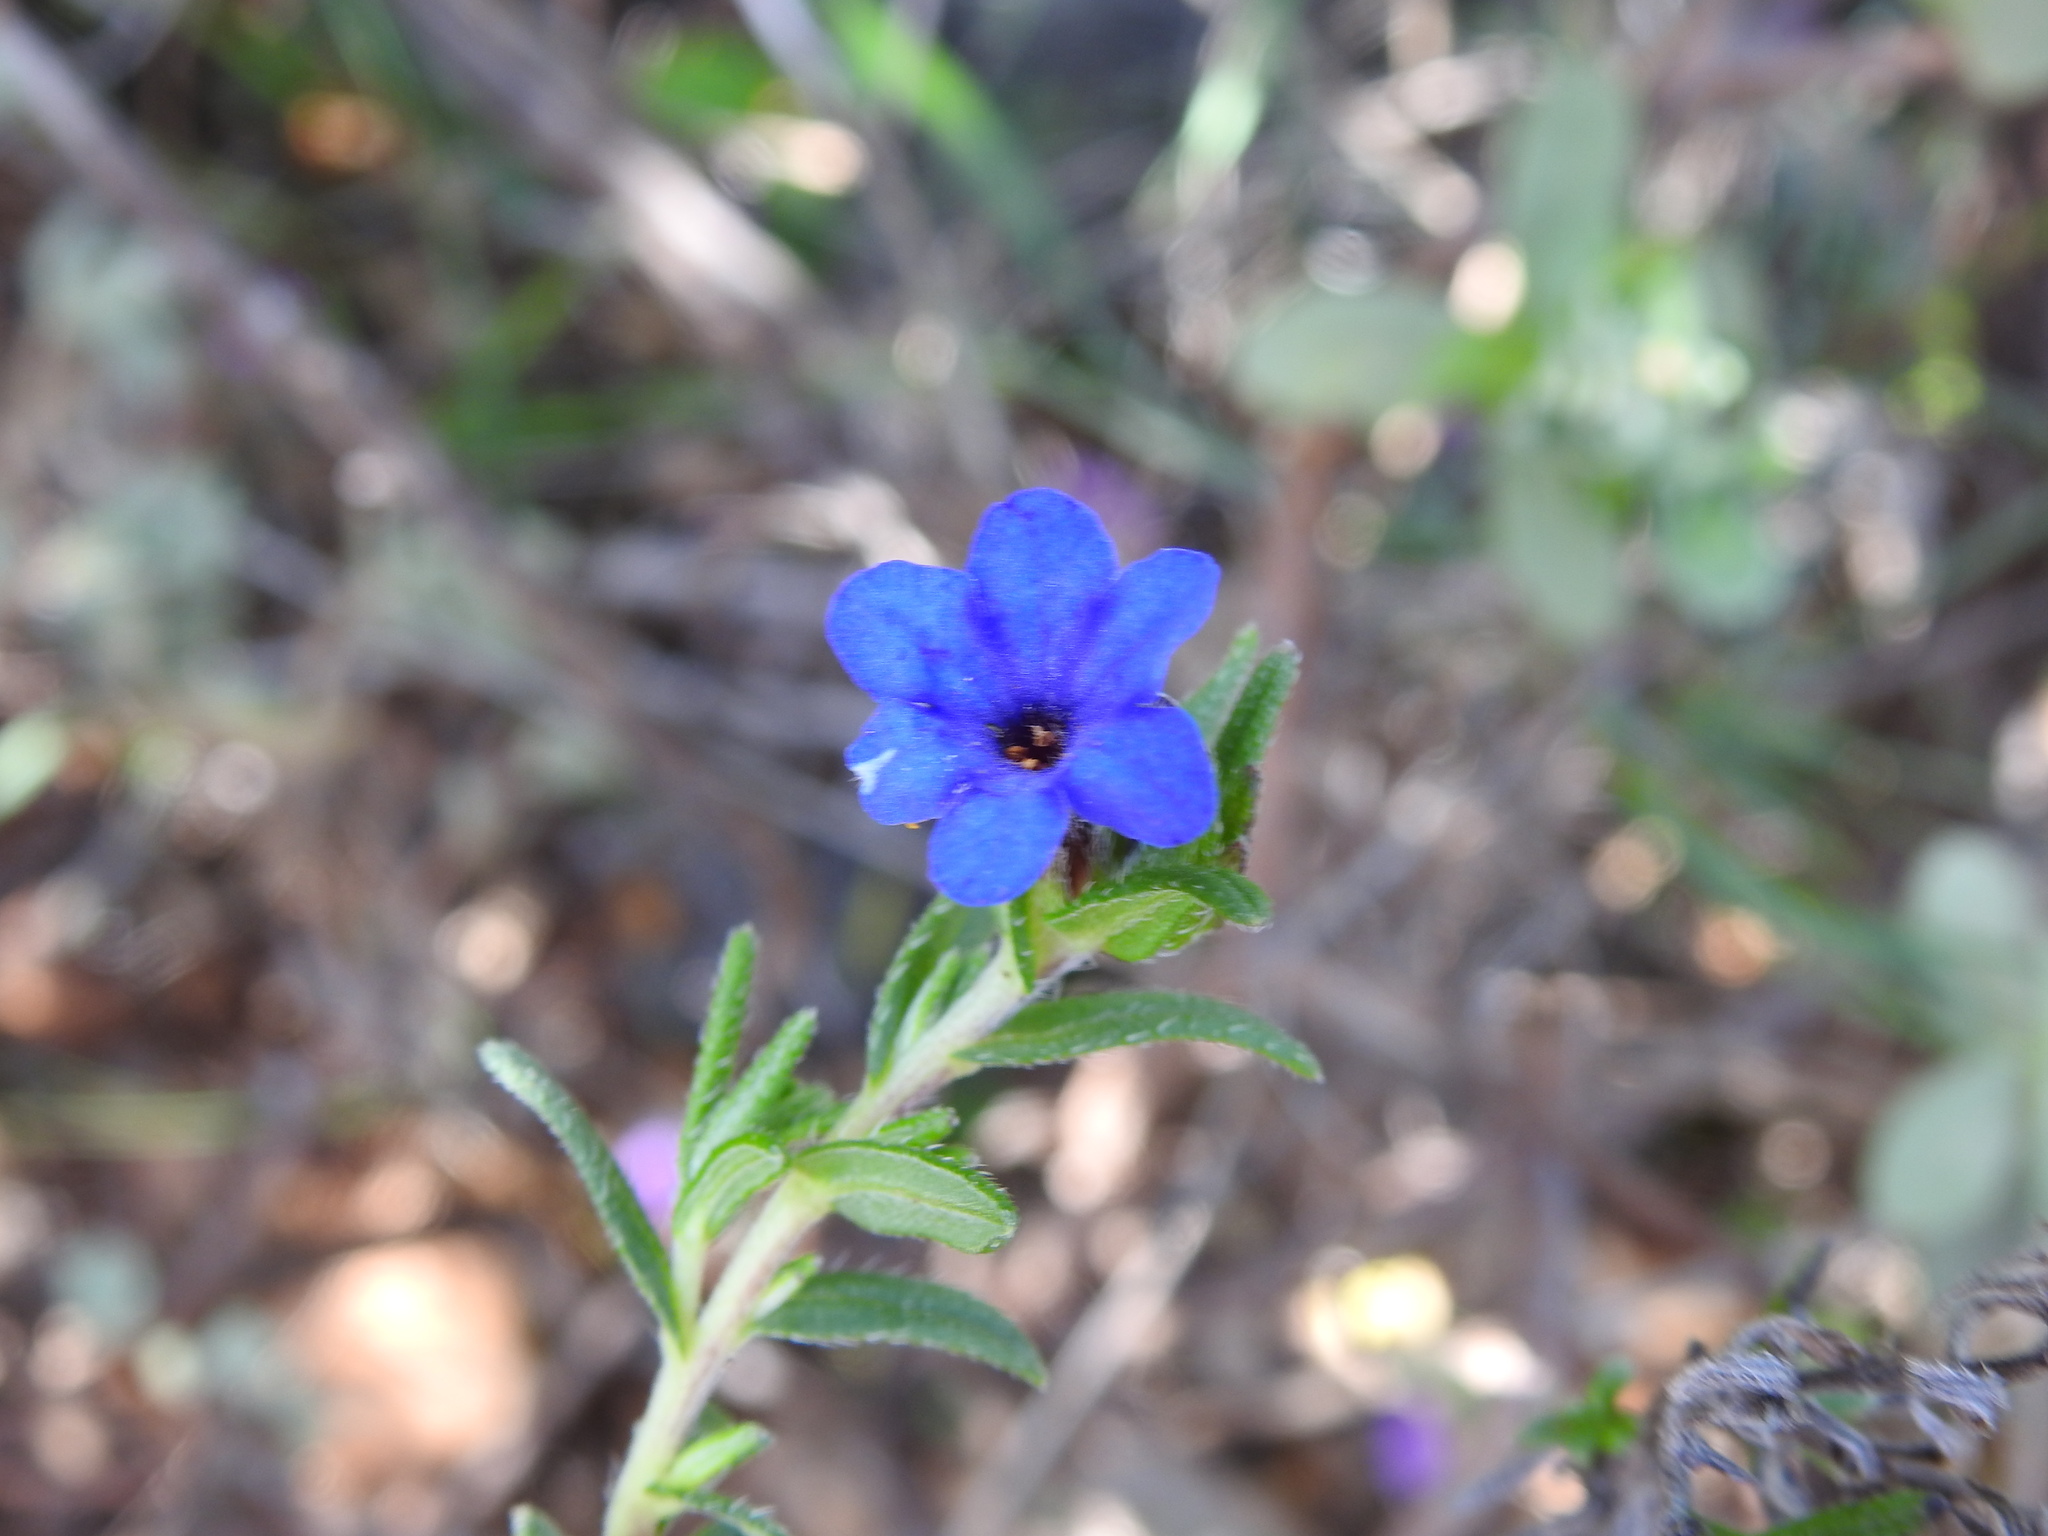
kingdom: Plantae
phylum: Tracheophyta
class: Magnoliopsida
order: Boraginales
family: Boraginaceae
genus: Glandora
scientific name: Glandora prostrata
